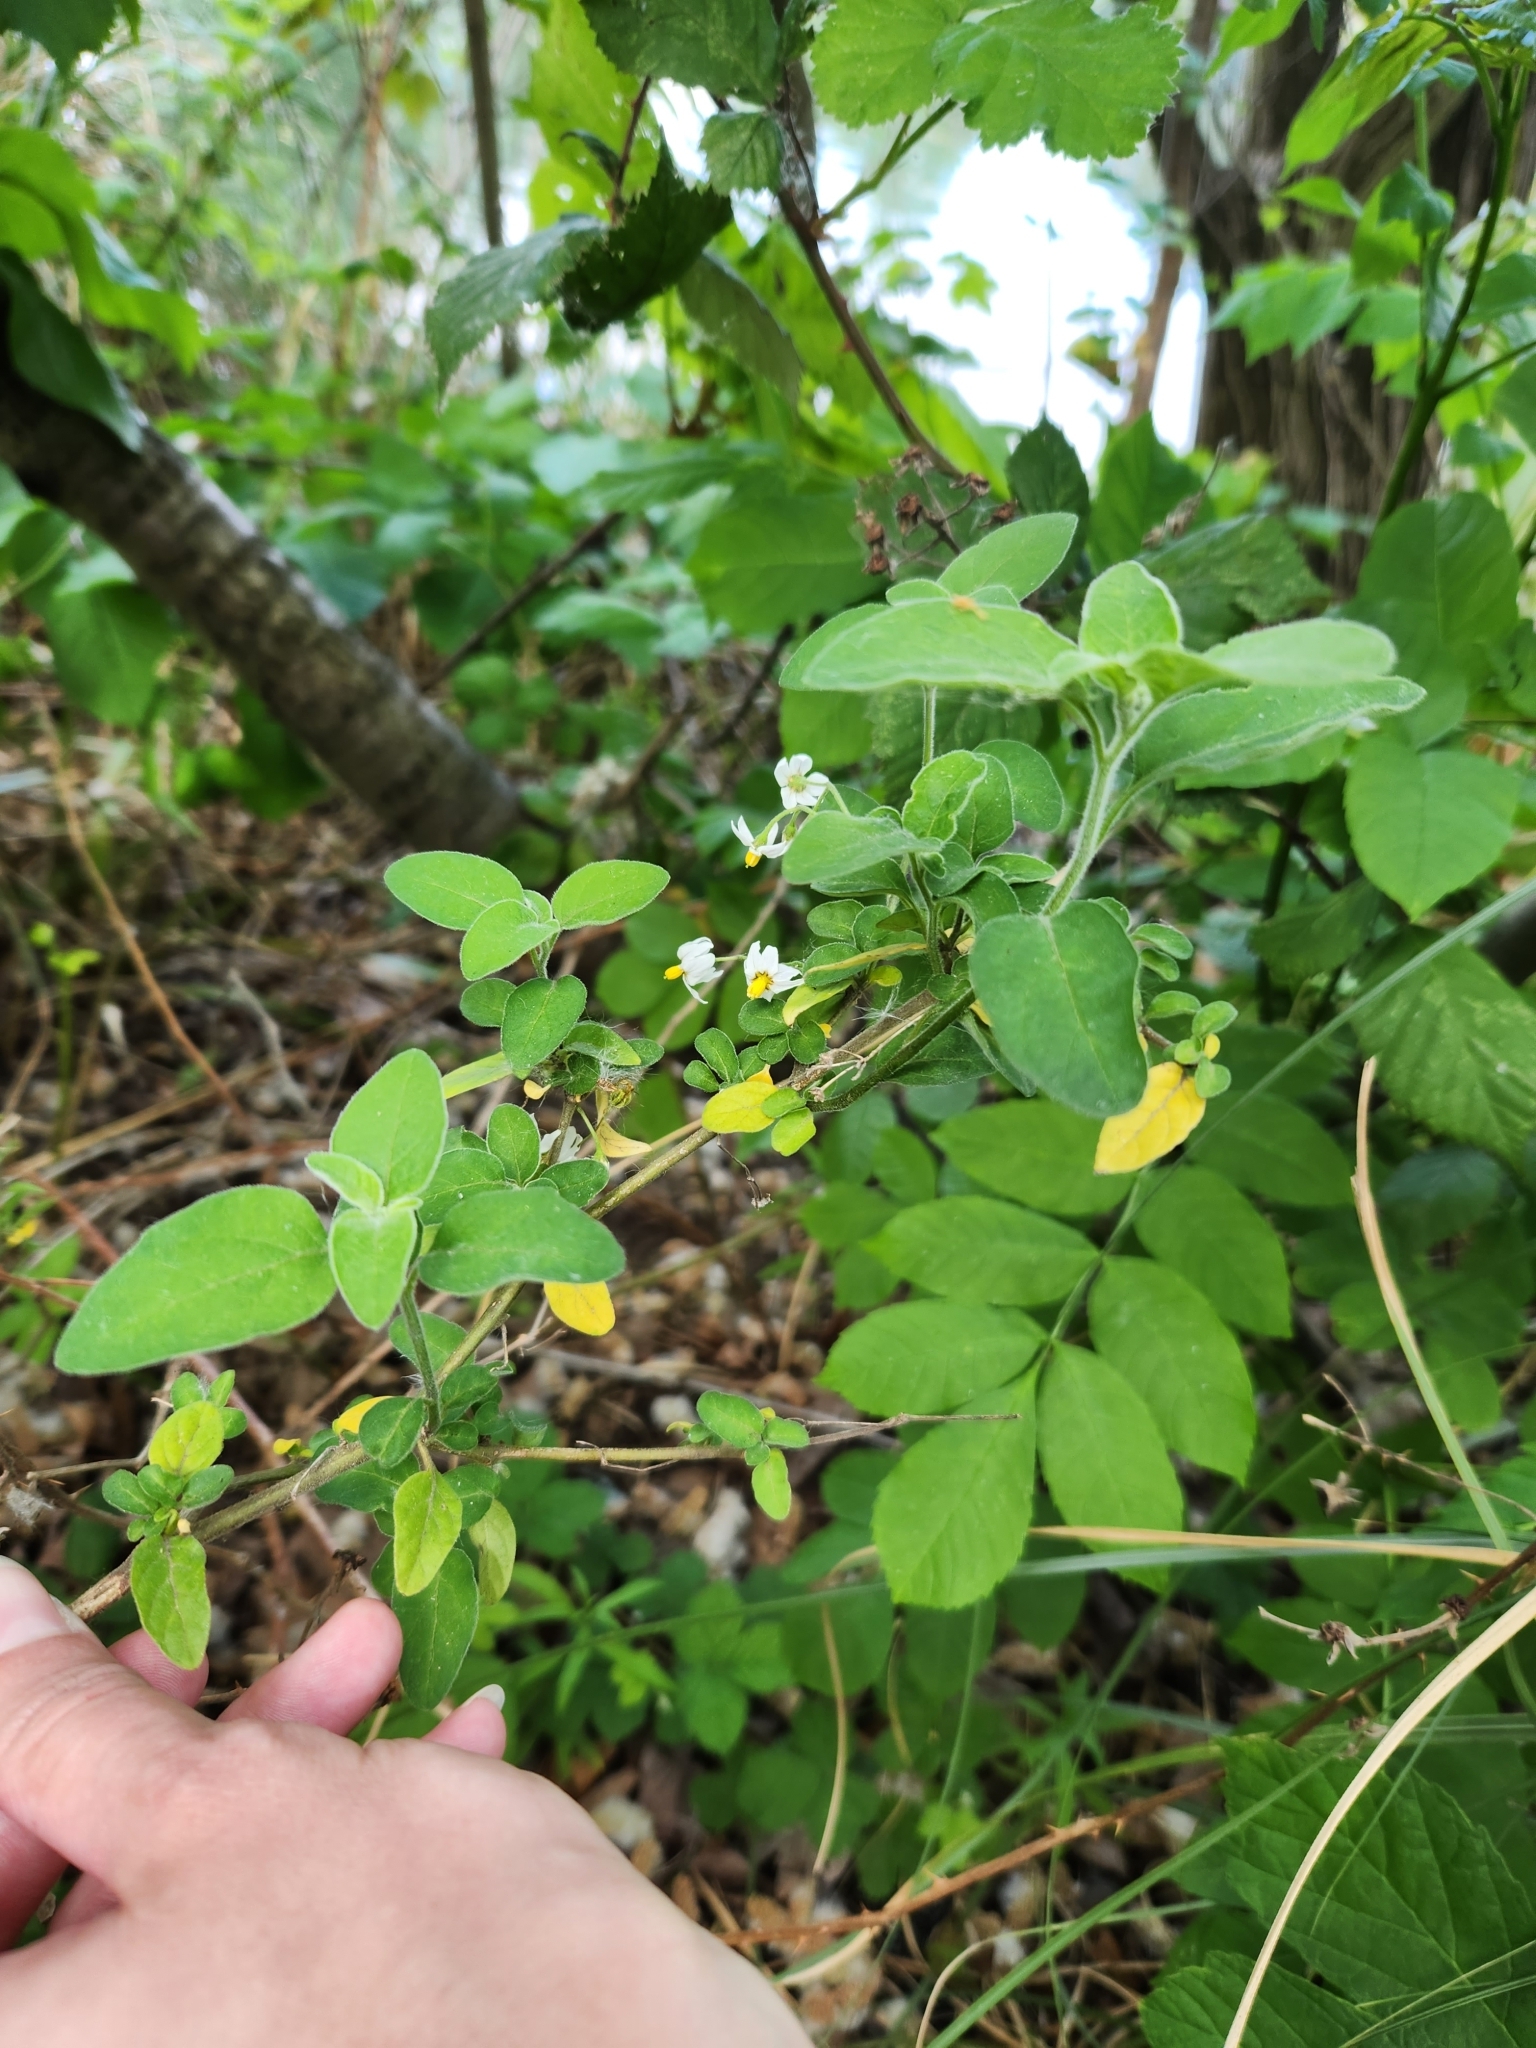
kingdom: Plantae
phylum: Tracheophyta
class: Magnoliopsida
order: Solanales
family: Solanaceae
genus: Solanum
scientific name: Solanum chenopodioides
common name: Tall nightshade
